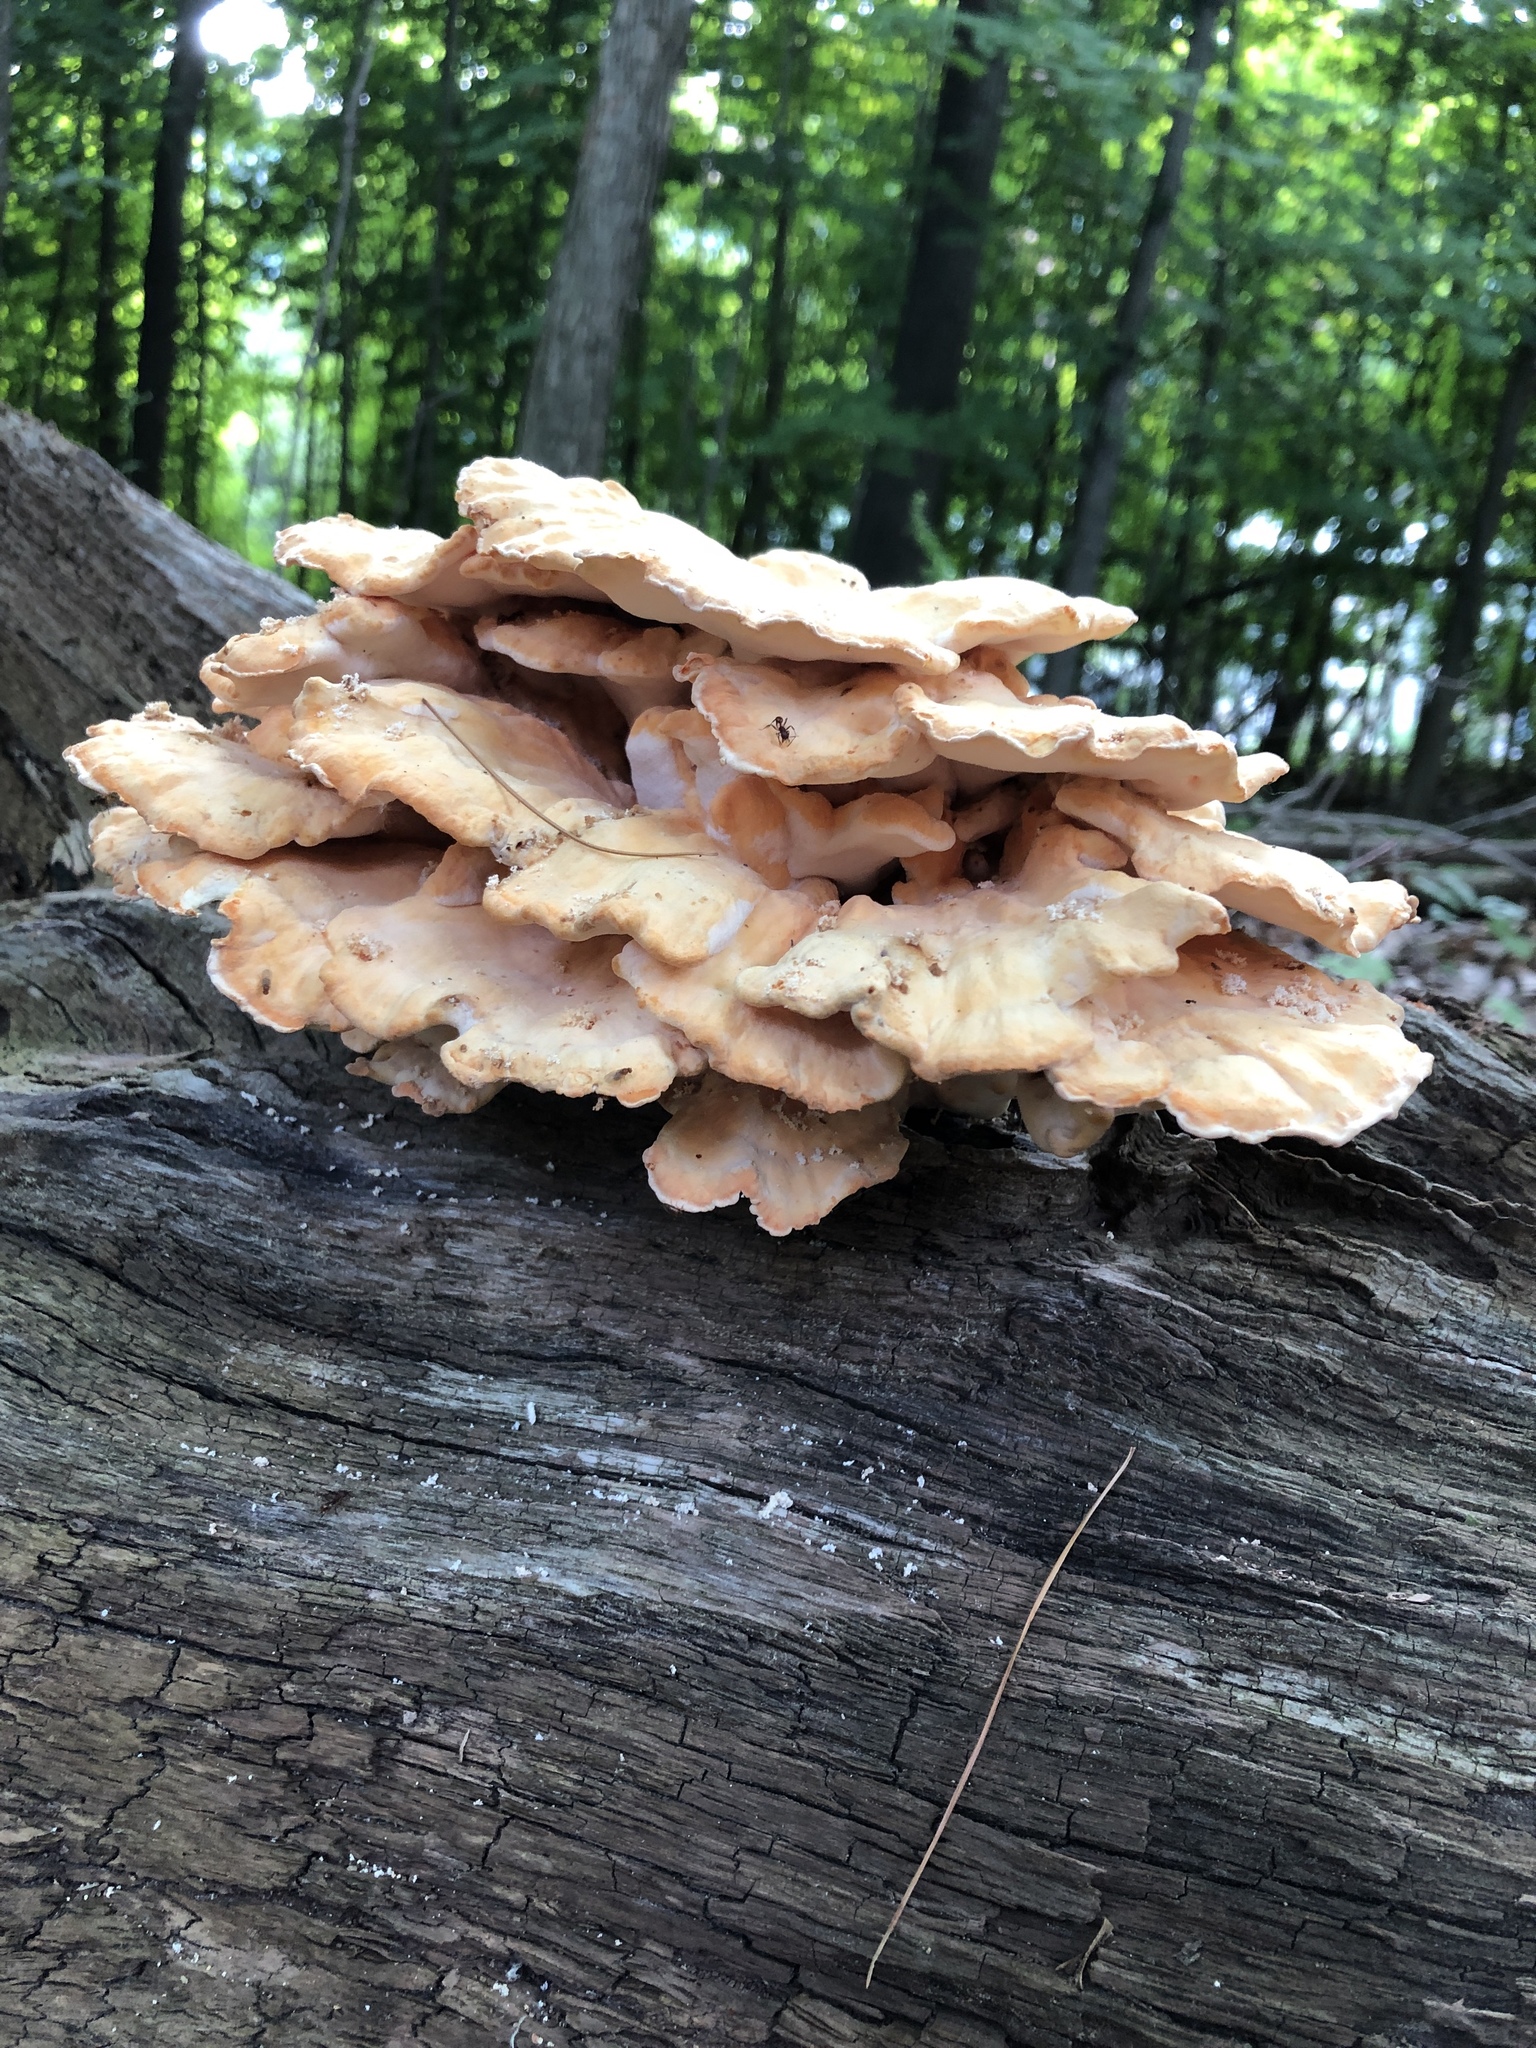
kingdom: Fungi
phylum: Basidiomycota
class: Agaricomycetes
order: Polyporales
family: Laetiporaceae
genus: Laetiporus
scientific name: Laetiporus sulphureus
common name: Chicken of the woods
